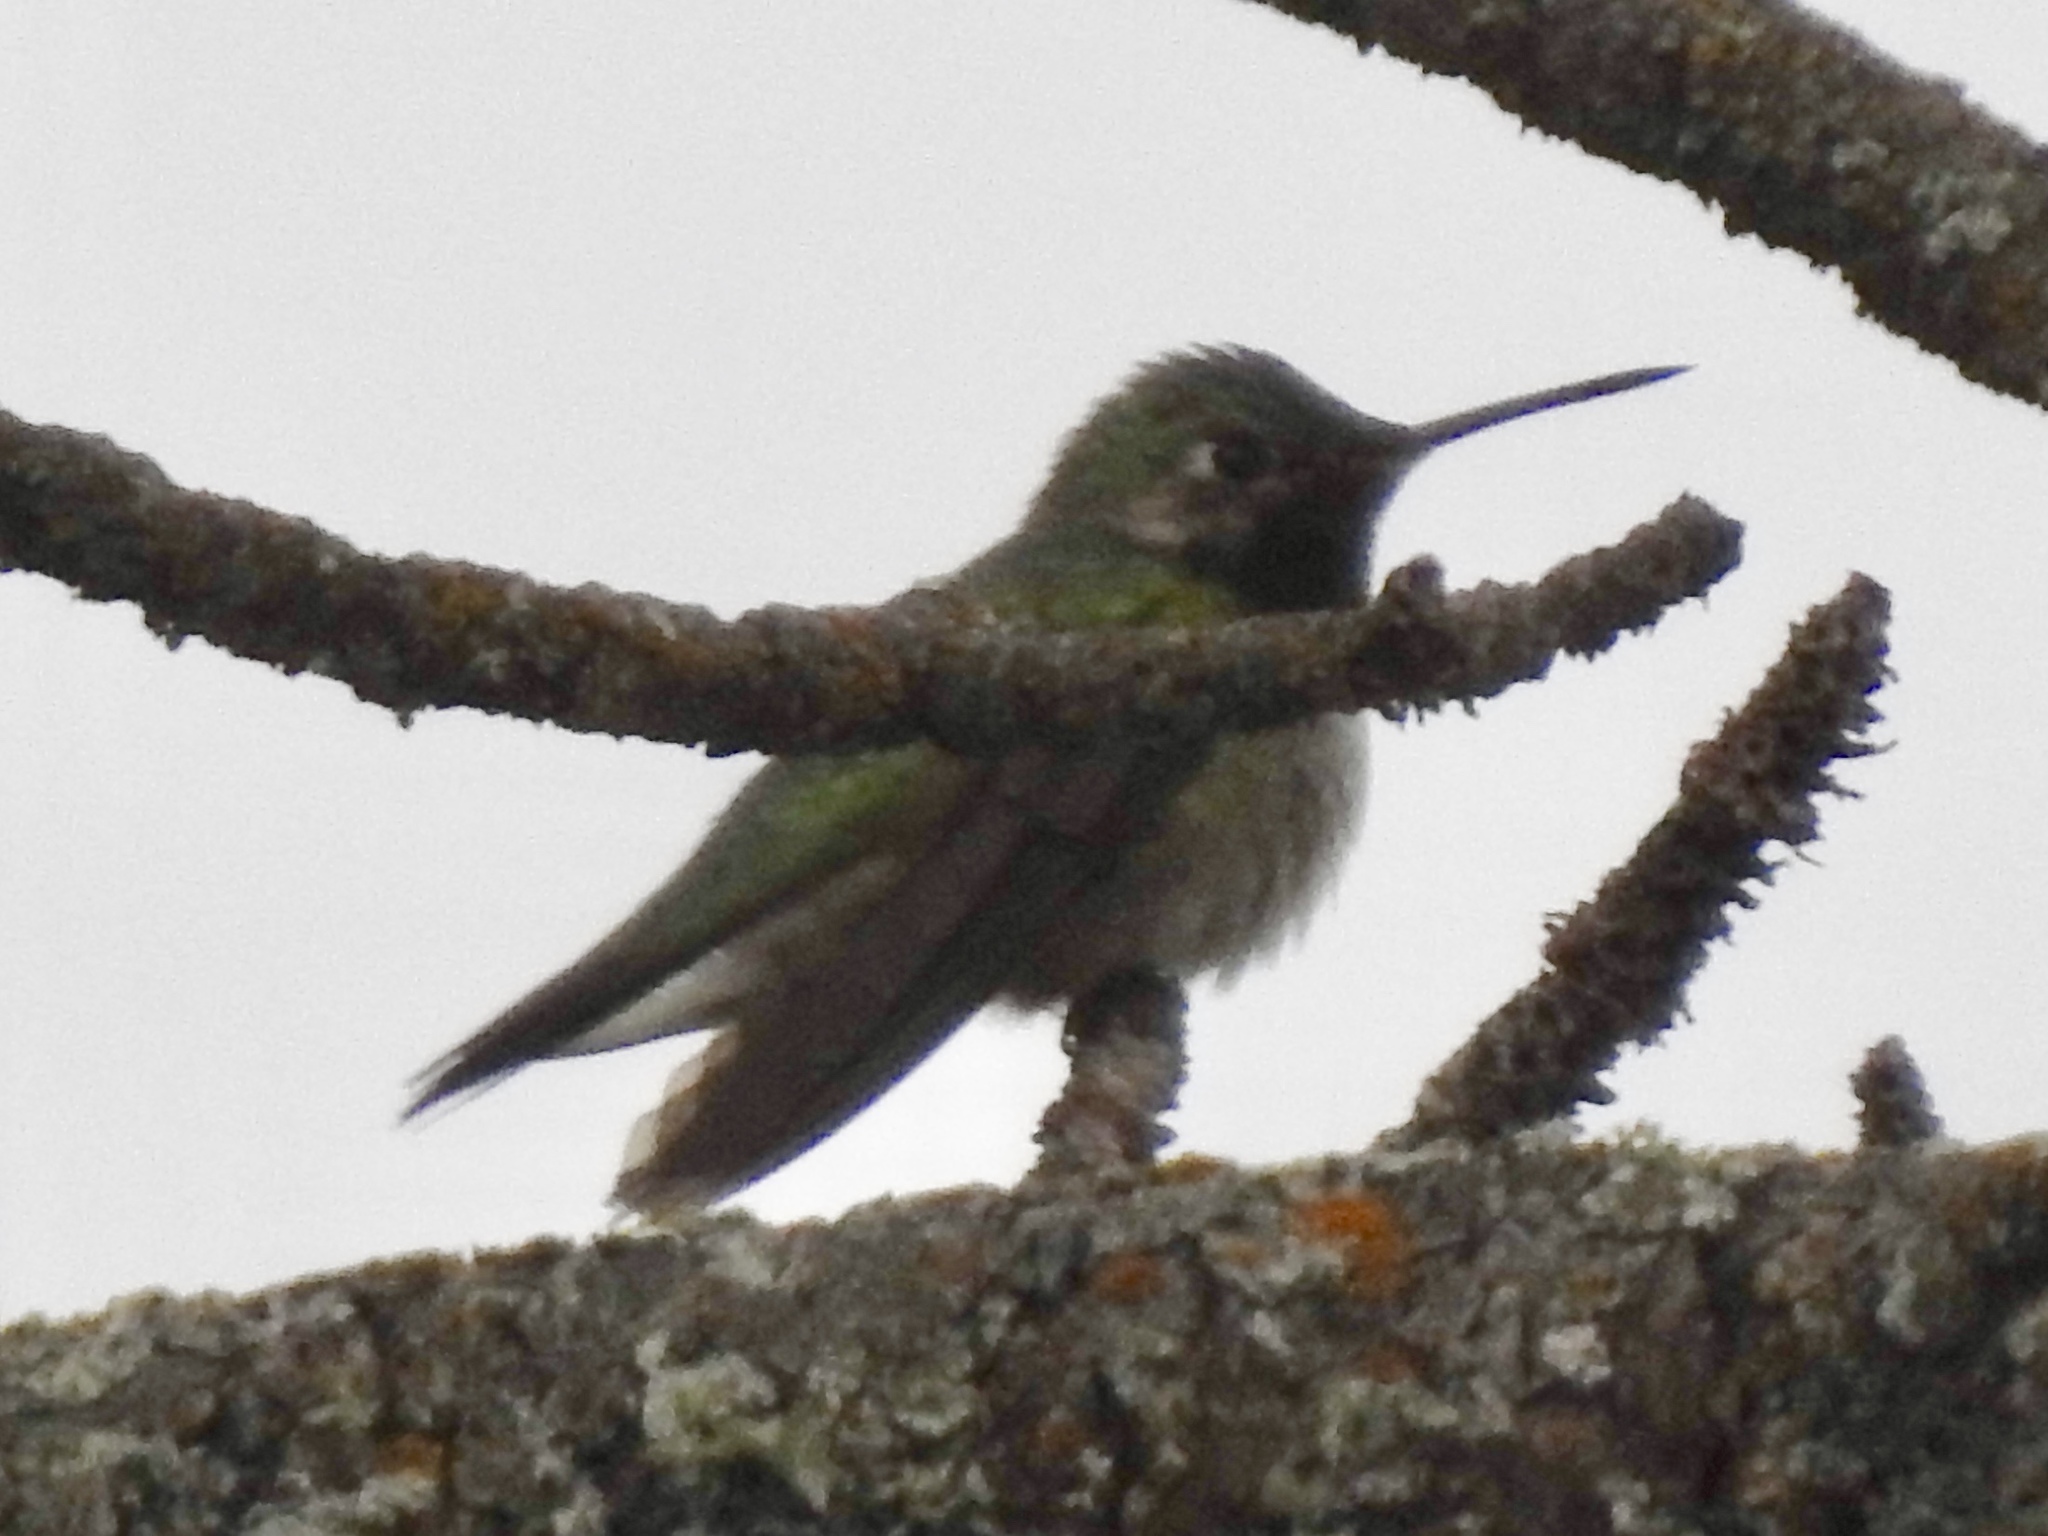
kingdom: Animalia
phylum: Chordata
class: Aves
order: Apodiformes
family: Trochilidae
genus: Selasphorus
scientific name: Selasphorus platycercus
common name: Broad-tailed hummingbird
